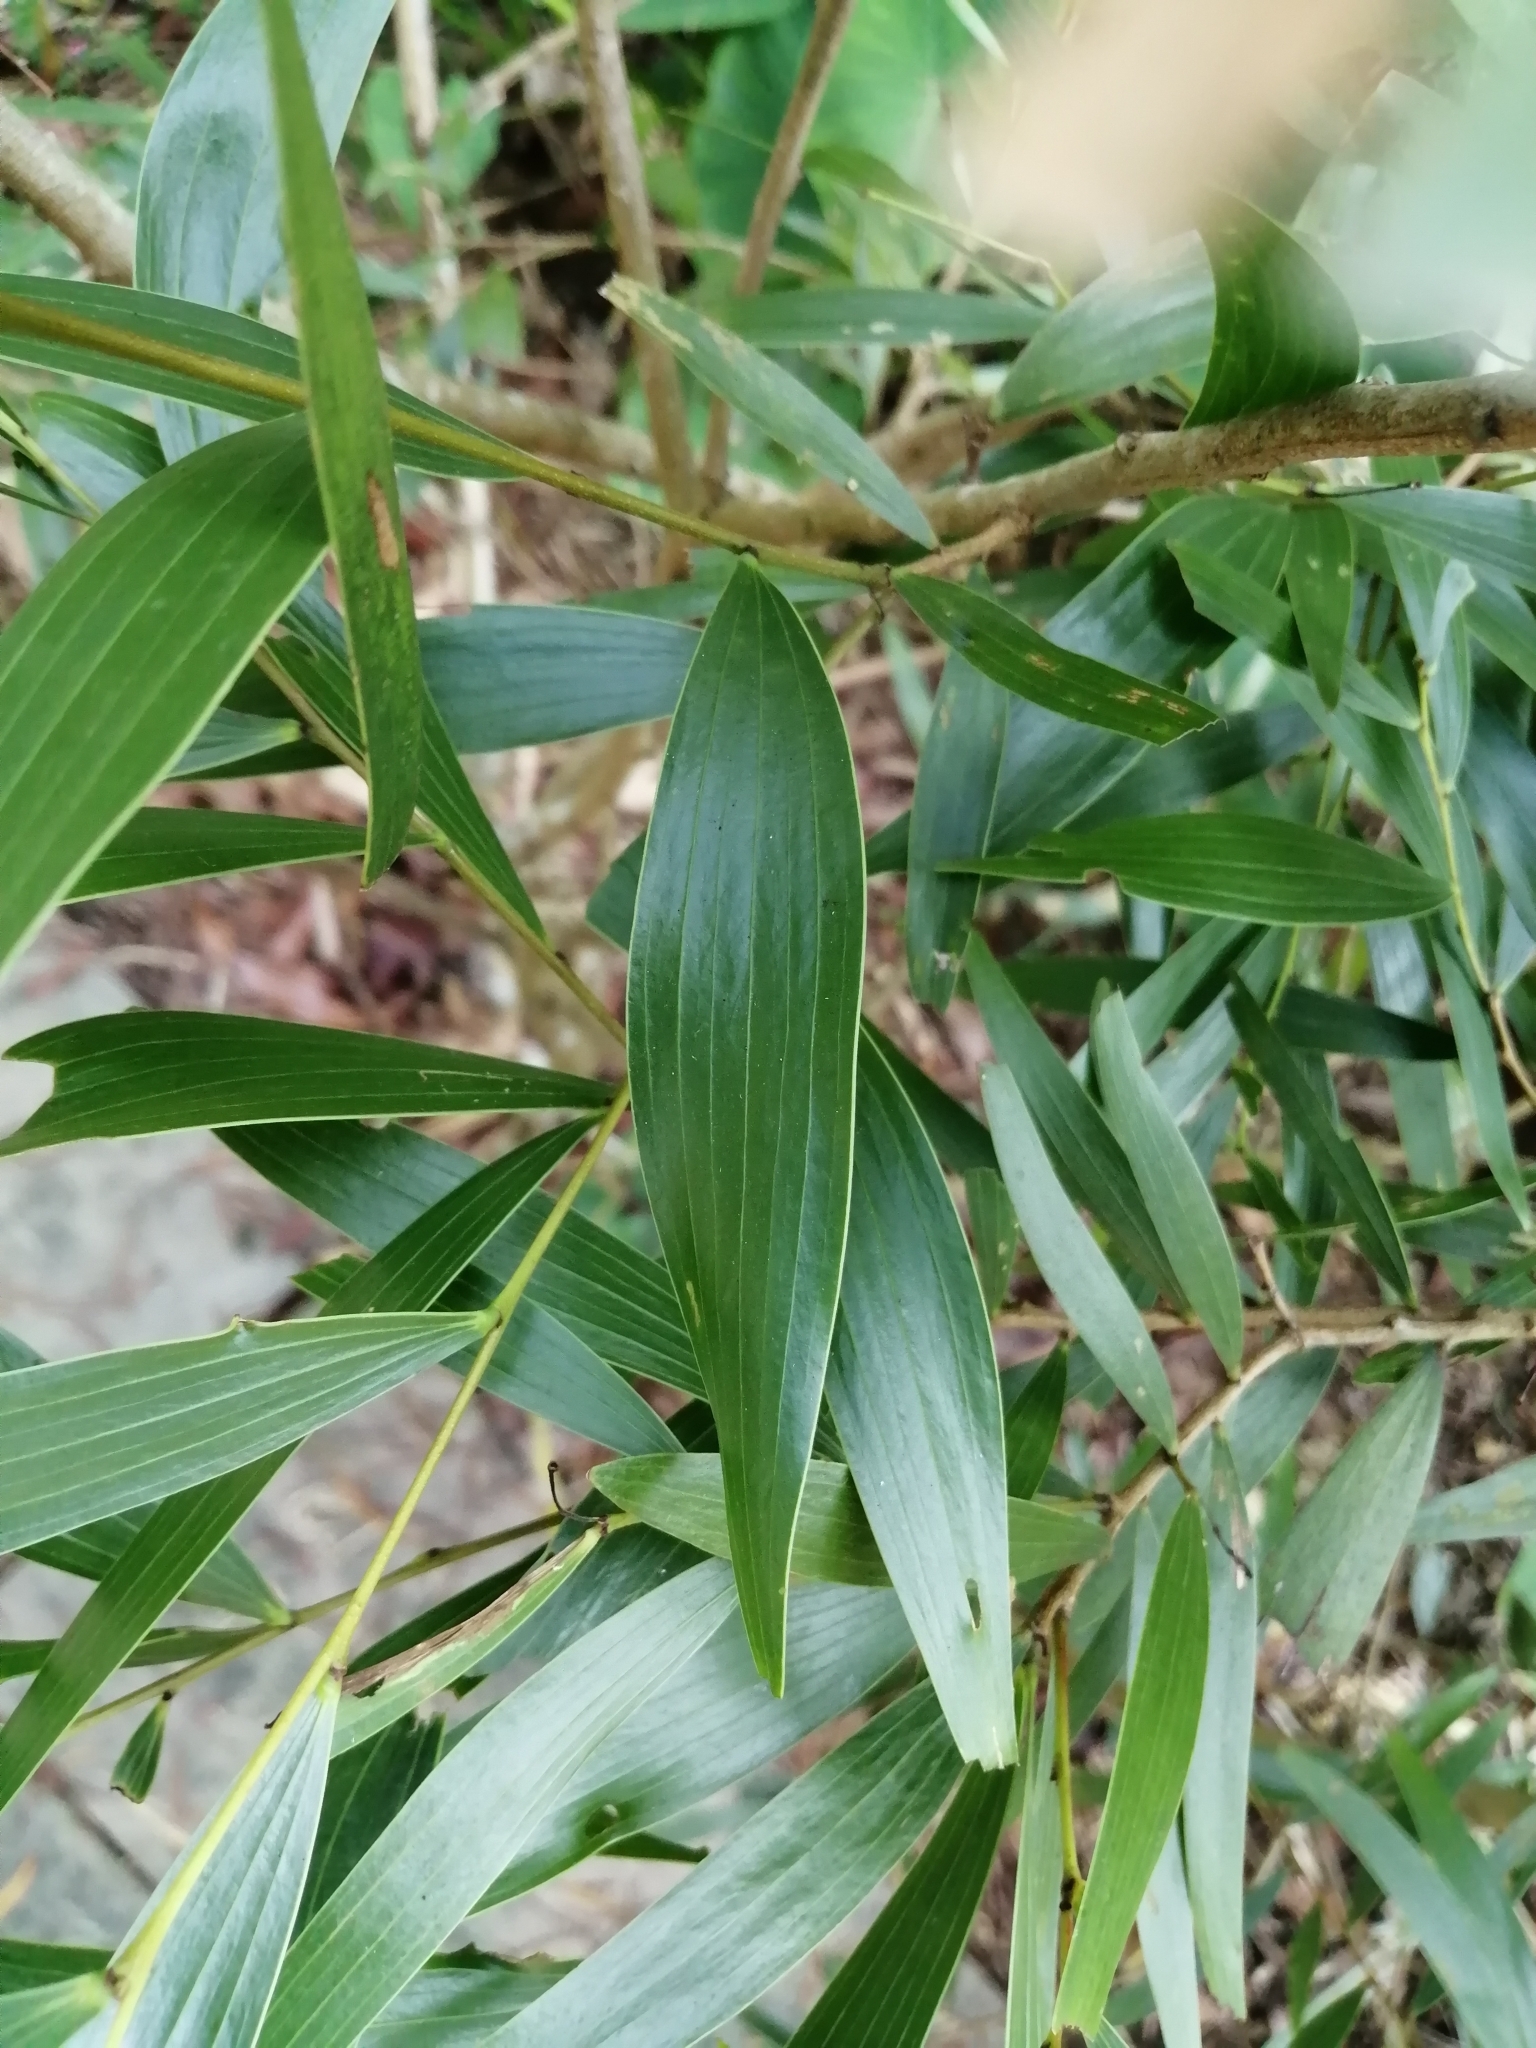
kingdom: Plantae
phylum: Tracheophyta
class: Magnoliopsida
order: Fabales
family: Fabaceae
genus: Acacia
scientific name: Acacia confusa
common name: Formosan koa
